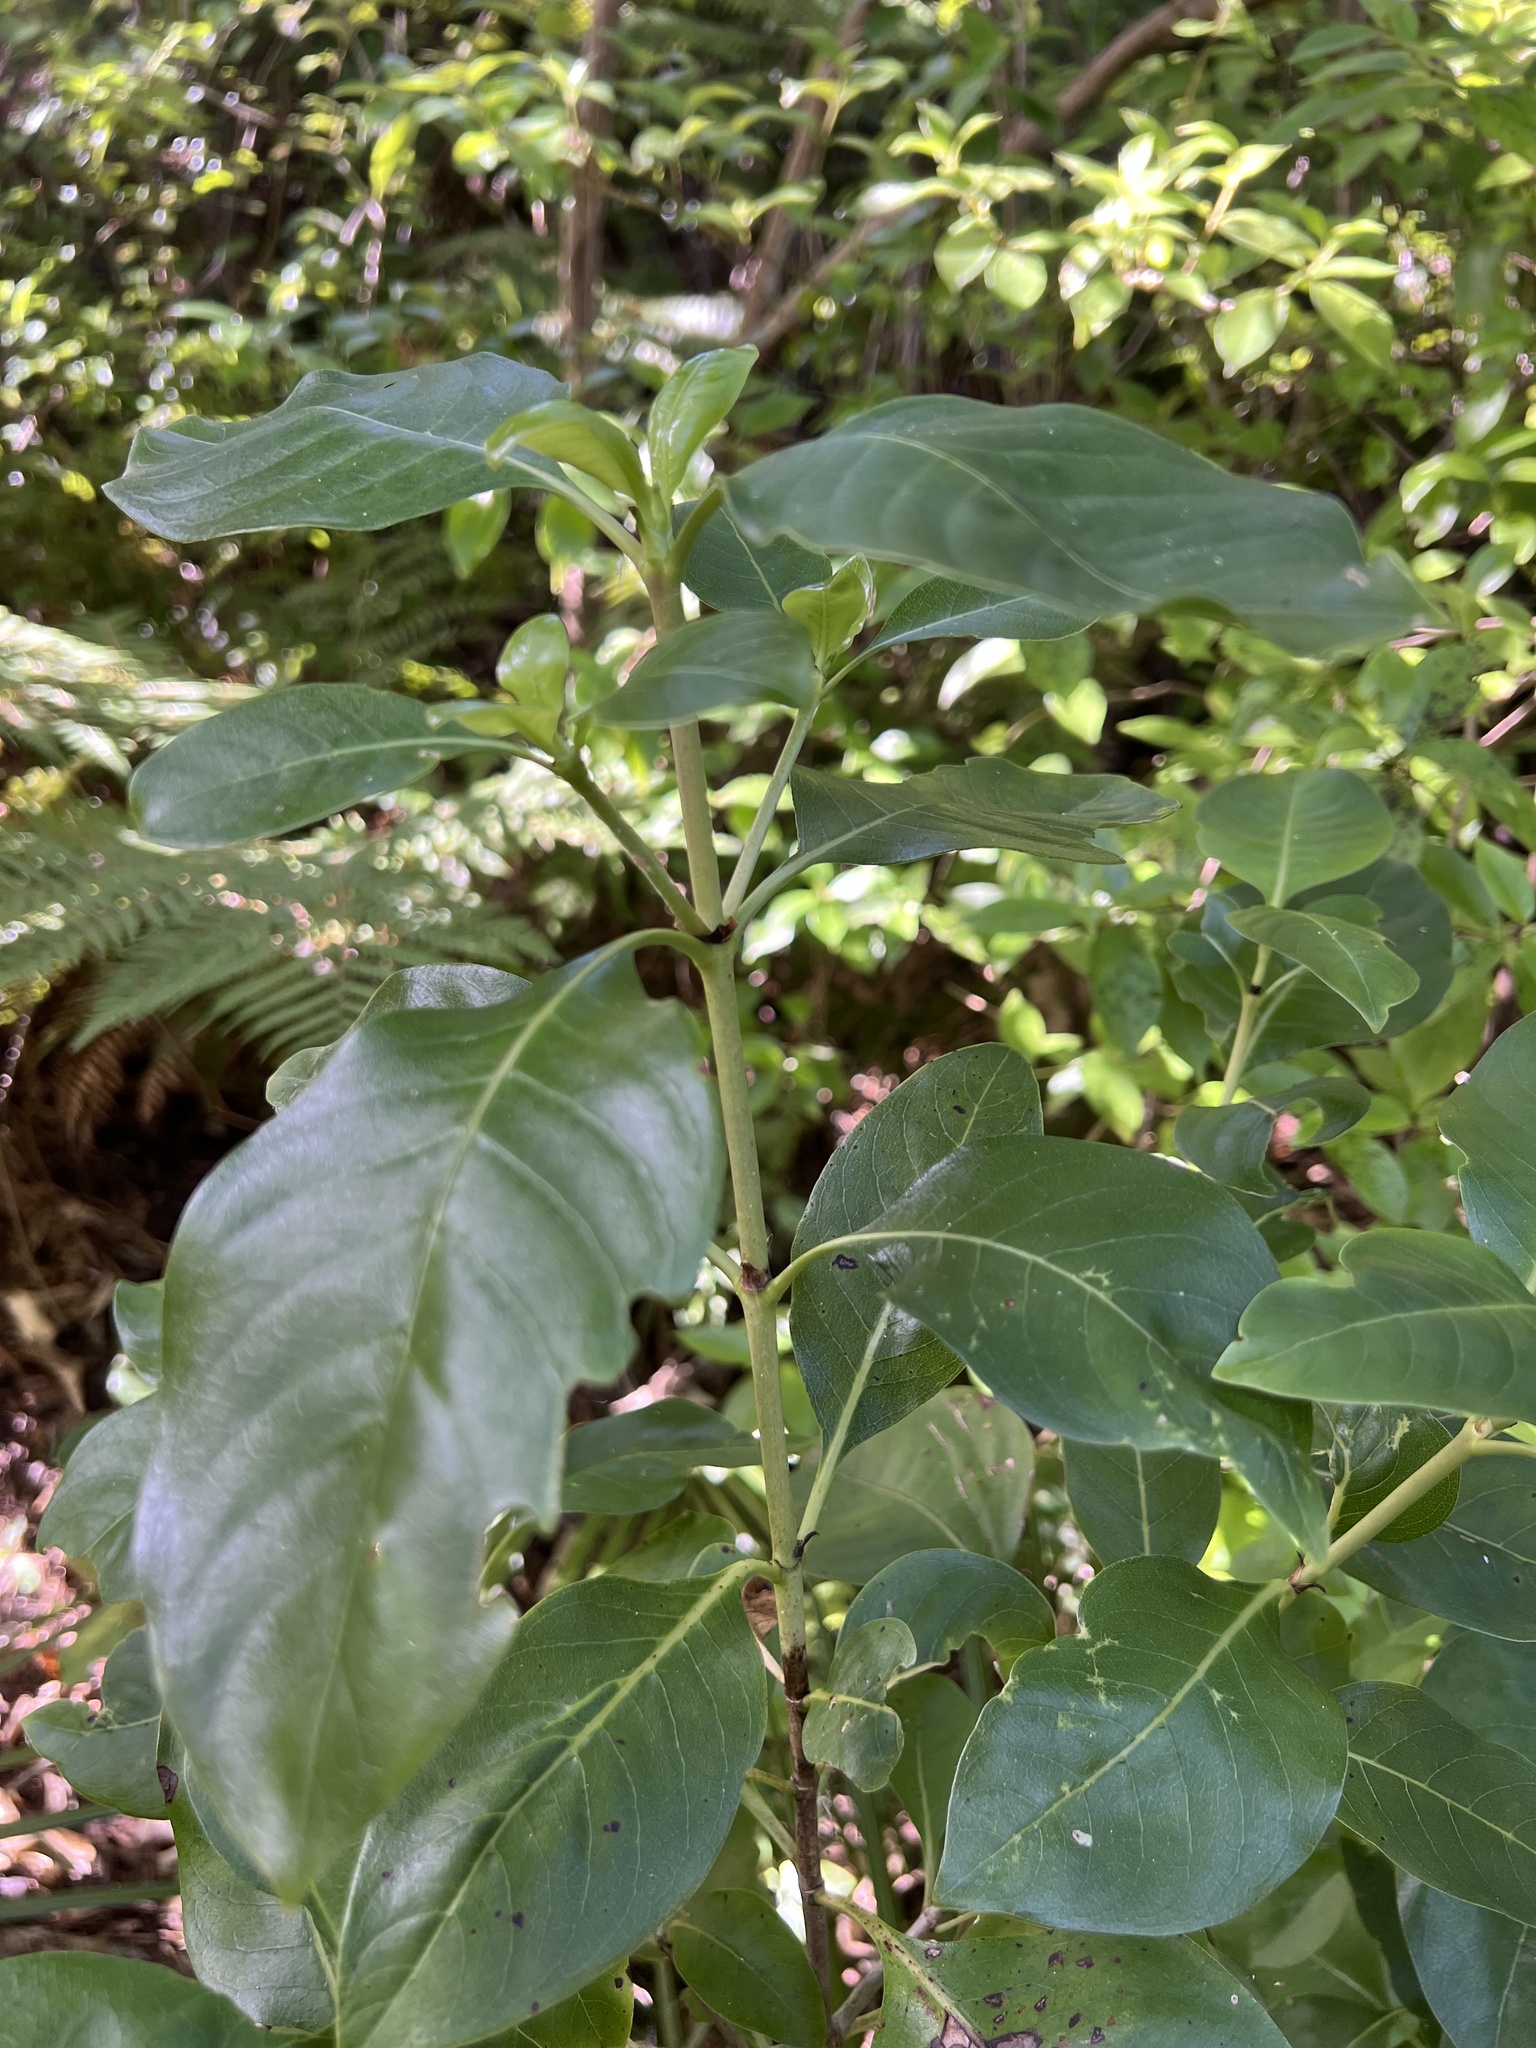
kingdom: Plantae
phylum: Tracheophyta
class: Magnoliopsida
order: Gentianales
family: Rubiaceae
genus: Coprosma
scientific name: Coprosma macrocarpa
